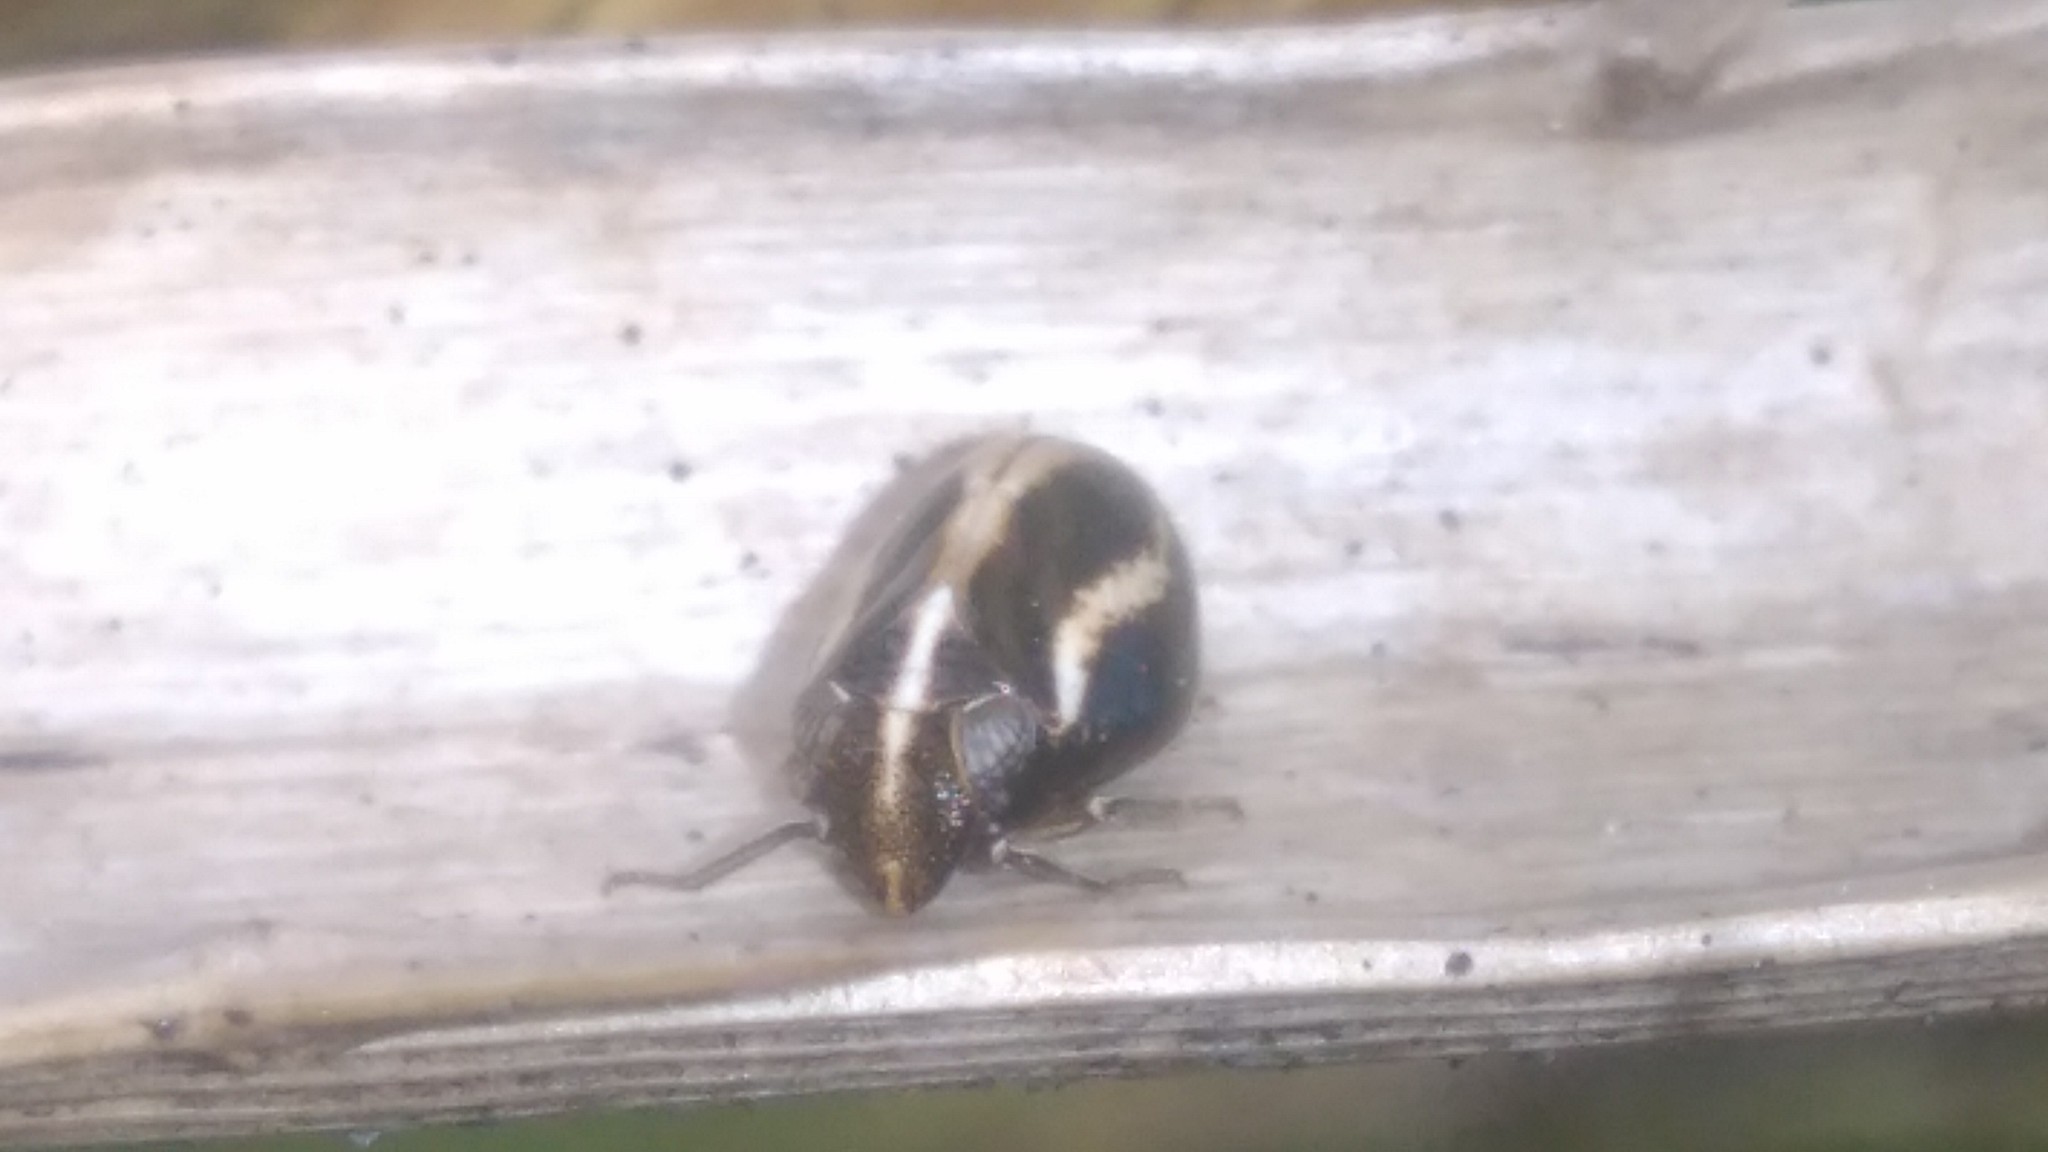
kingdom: Animalia
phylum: Arthropoda
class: Insecta
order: Hemiptera
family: Issidae
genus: Argepara
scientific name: Argepara lyra
